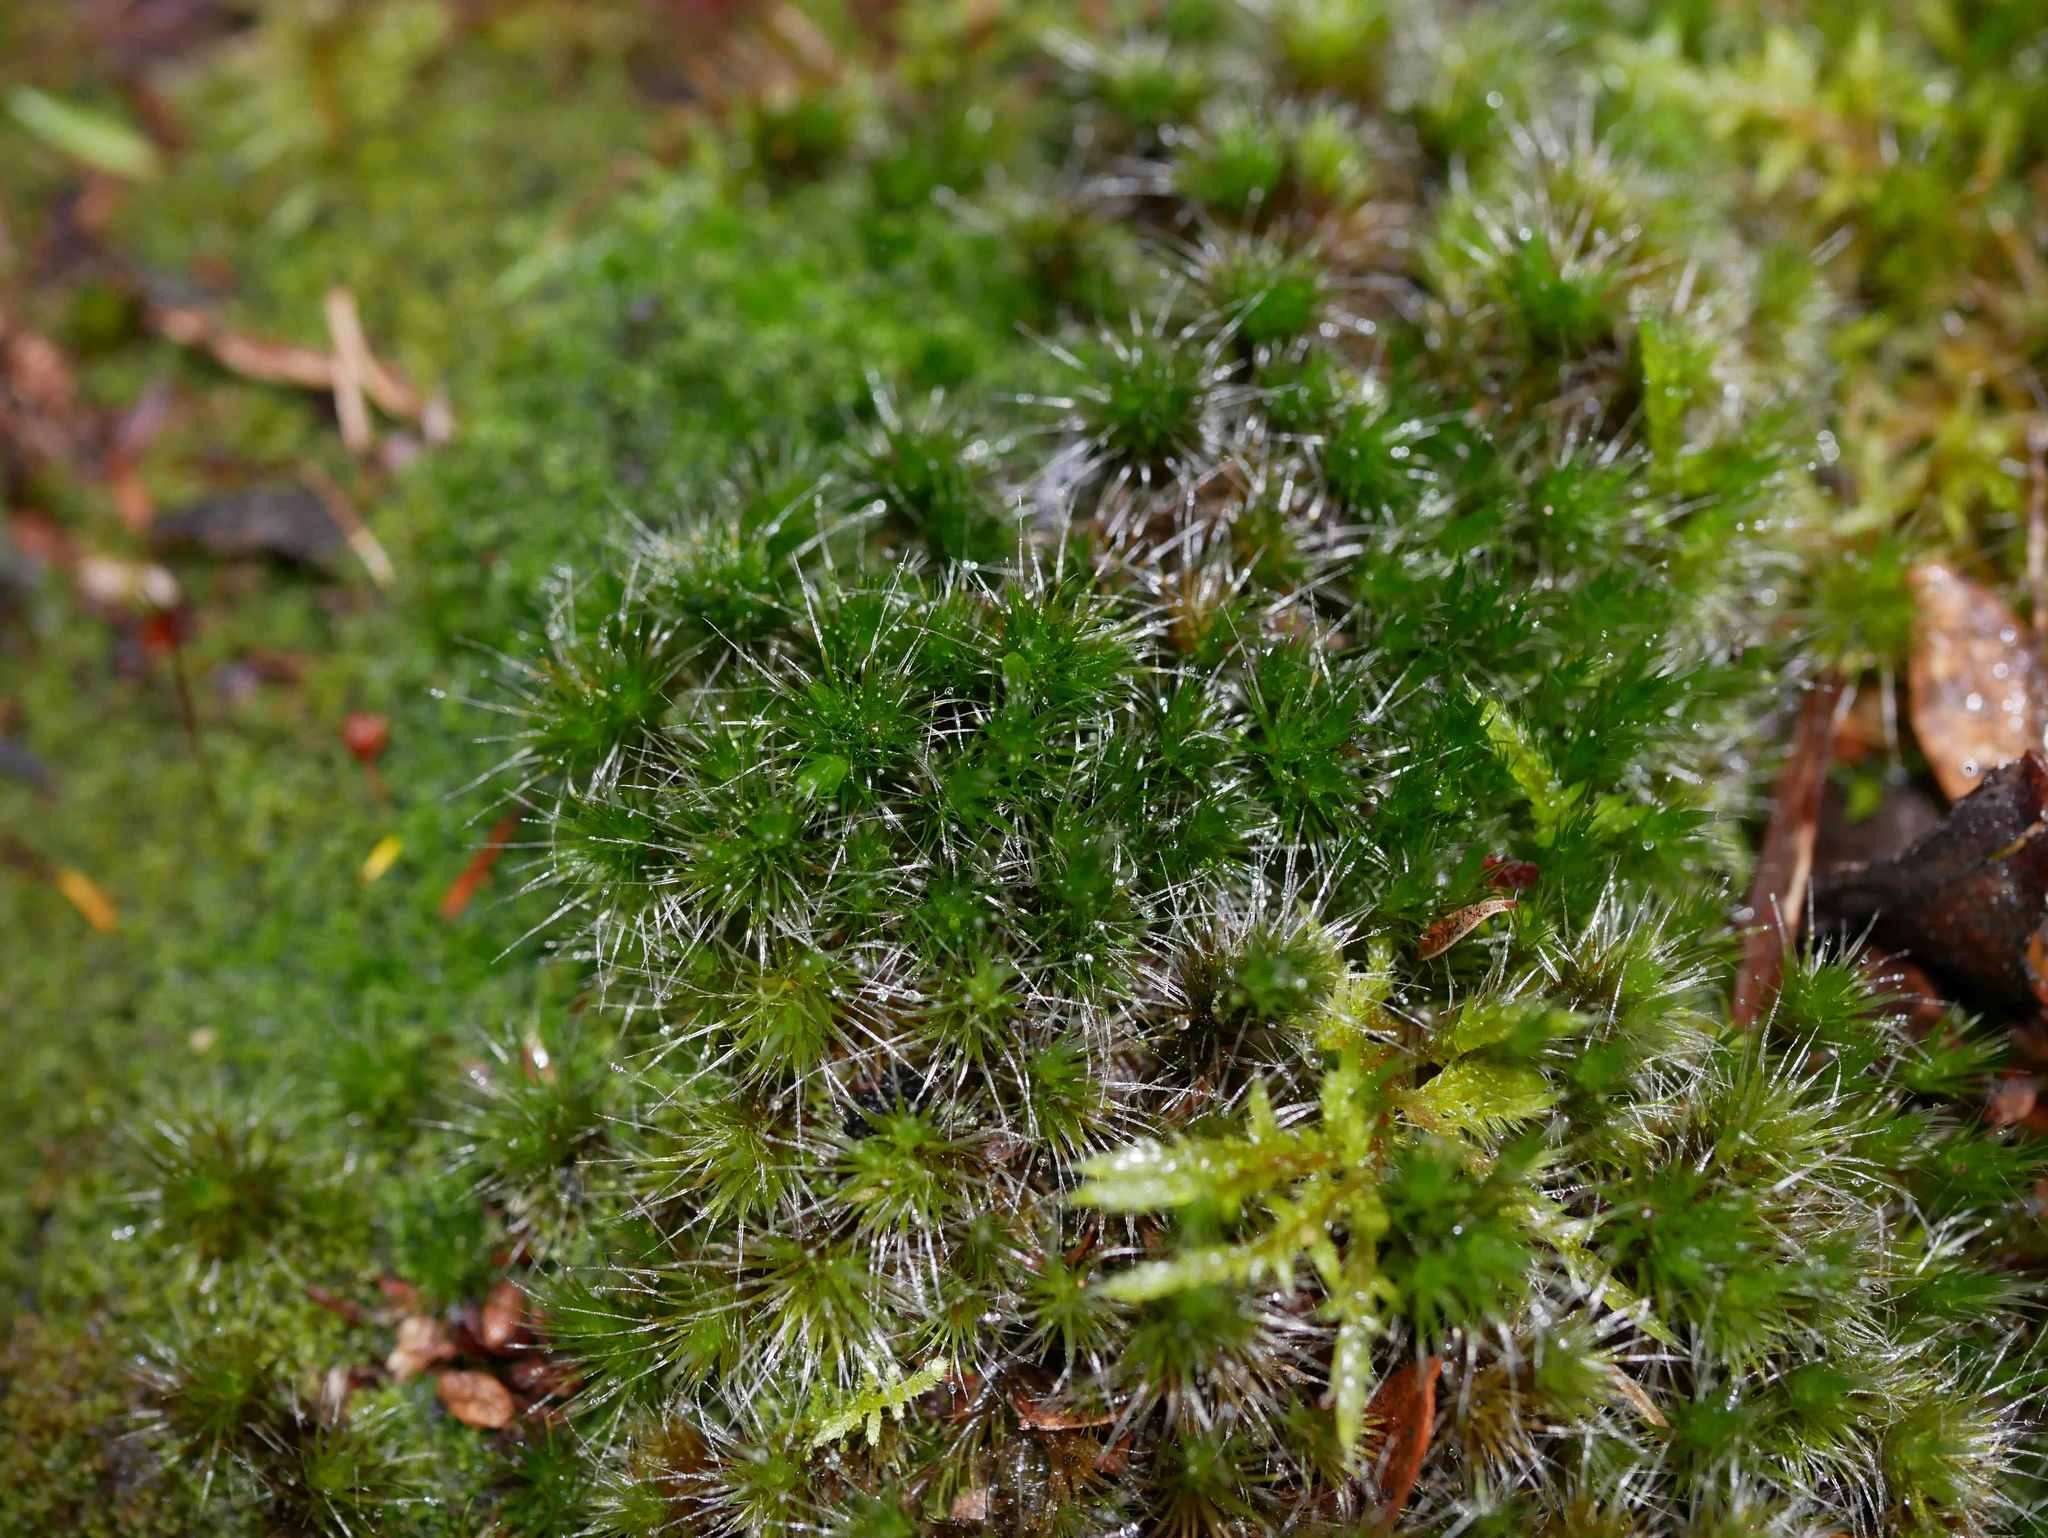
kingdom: Plantae
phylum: Bryophyta
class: Bryopsida
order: Dicranales
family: Leucobryaceae
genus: Campylopus
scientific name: Campylopus introflexus
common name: Heath star moss
